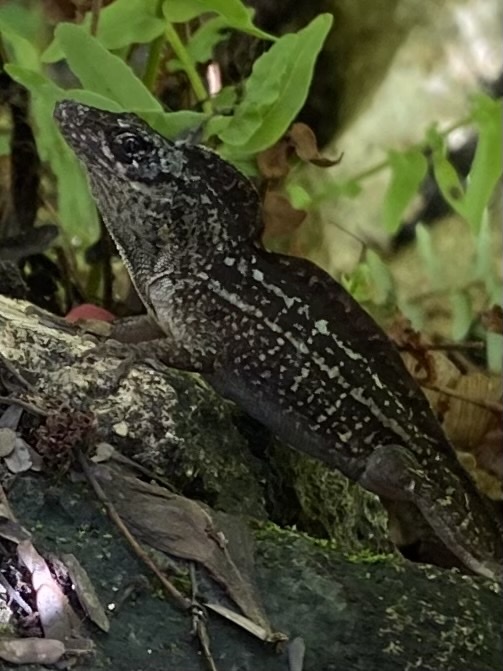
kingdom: Animalia
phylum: Chordata
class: Squamata
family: Dactyloidae
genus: Anolis
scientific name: Anolis sagrei
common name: Brown anole
